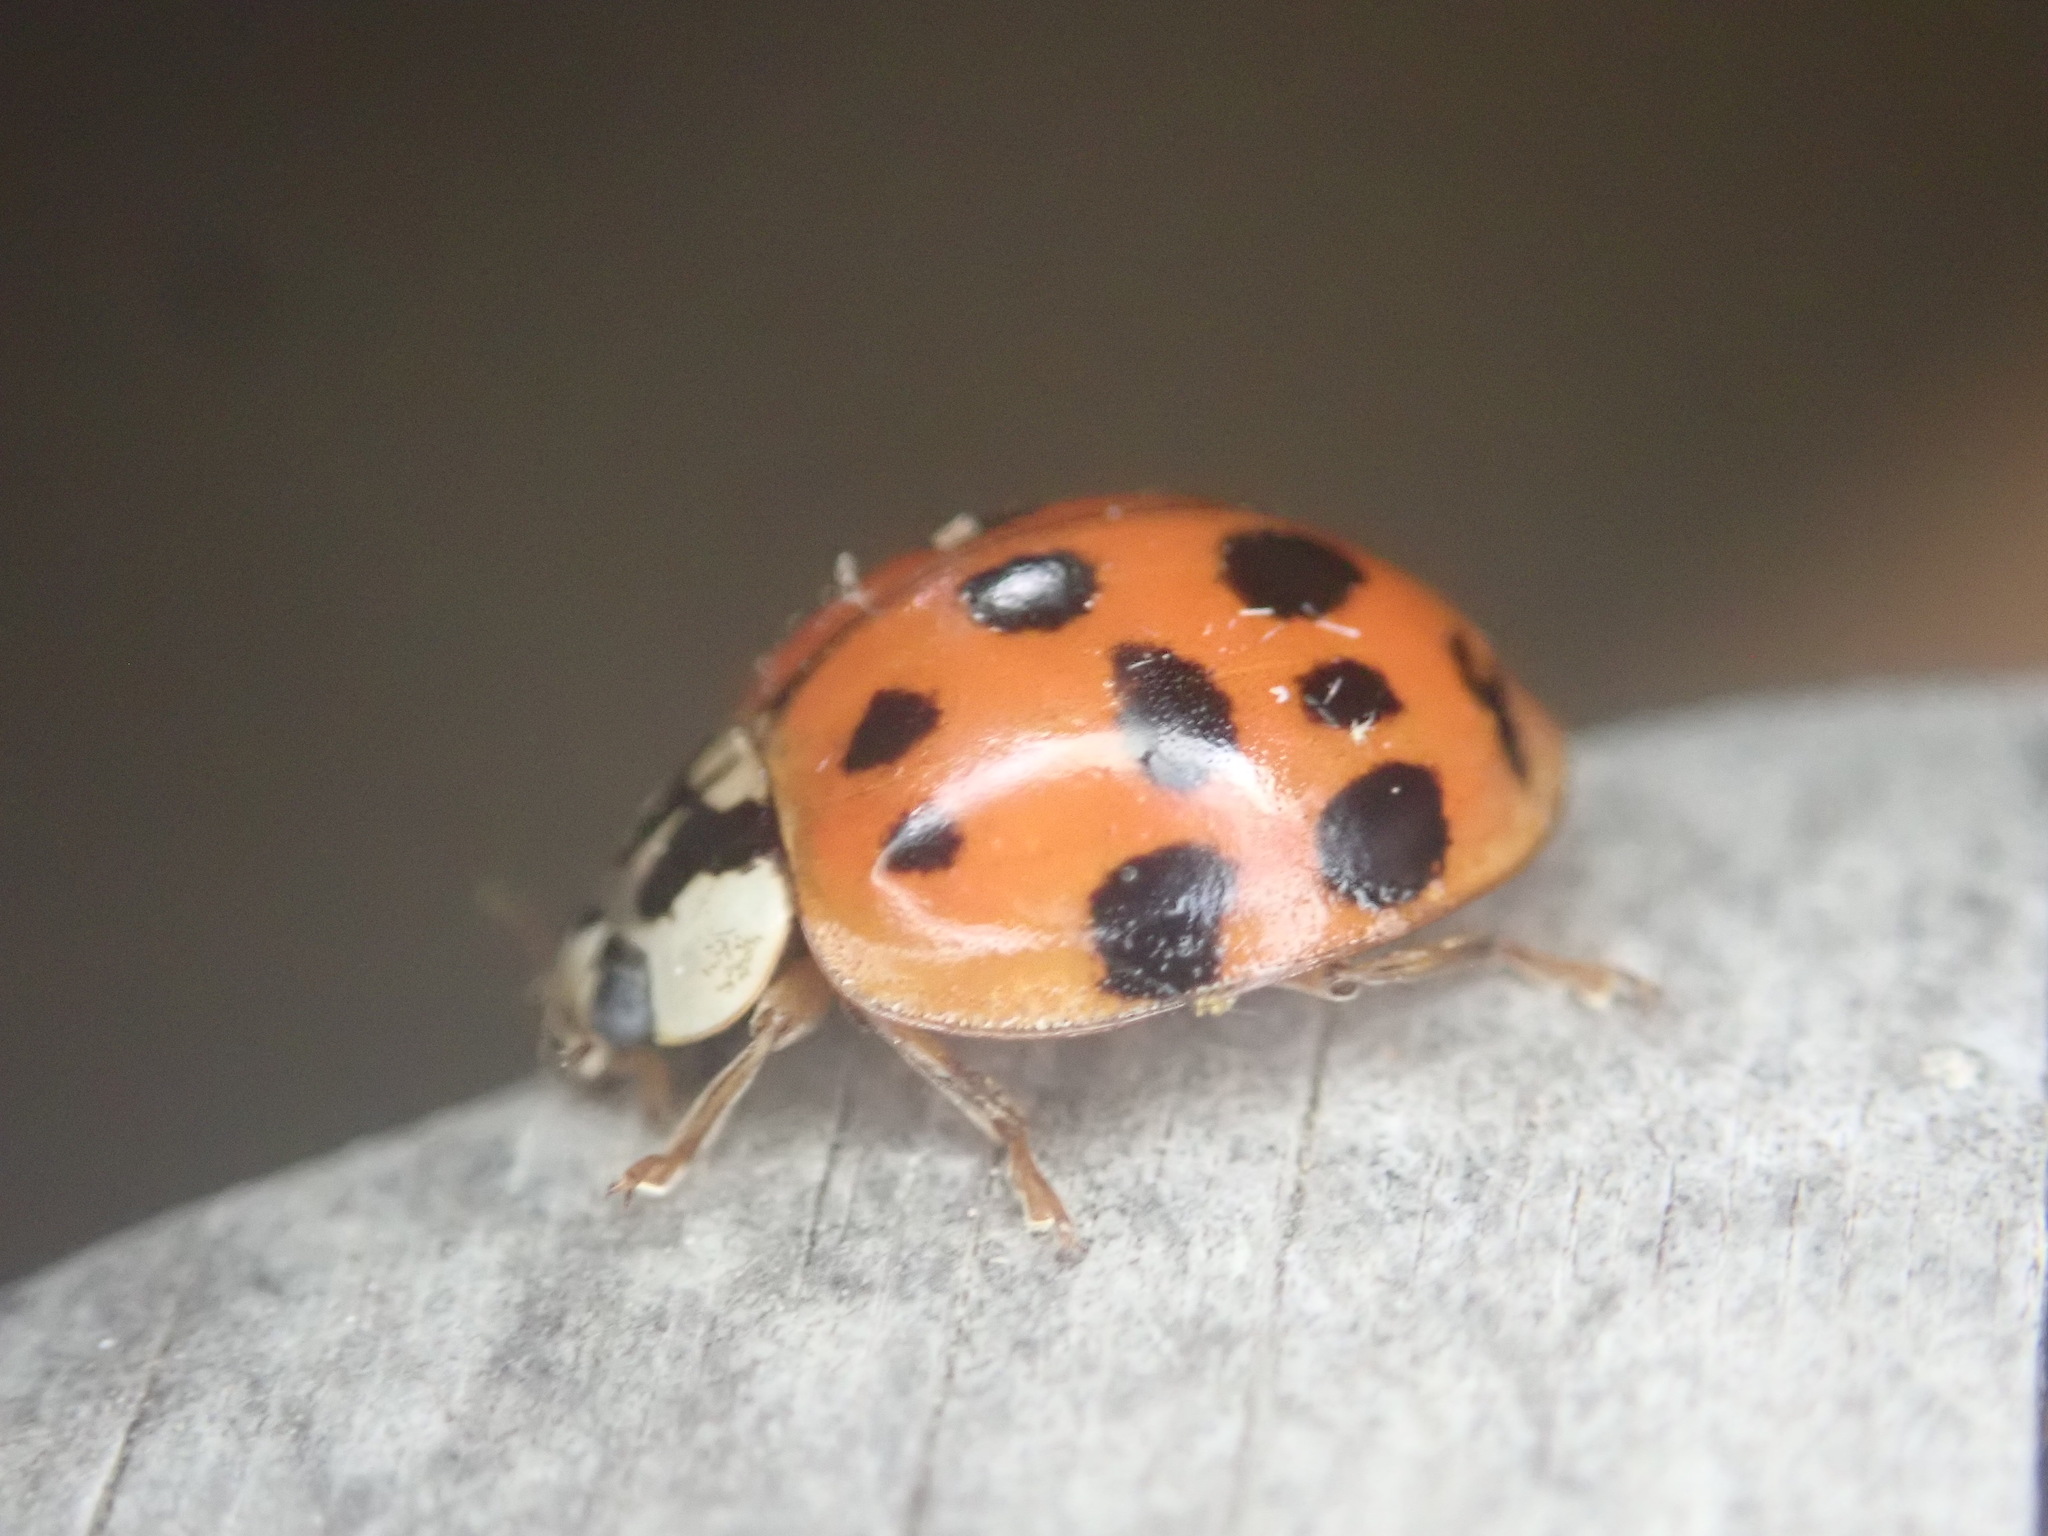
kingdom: Animalia
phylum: Arthropoda
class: Insecta
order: Coleoptera
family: Coccinellidae
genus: Harmonia
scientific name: Harmonia axyridis
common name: Harlequin ladybird
